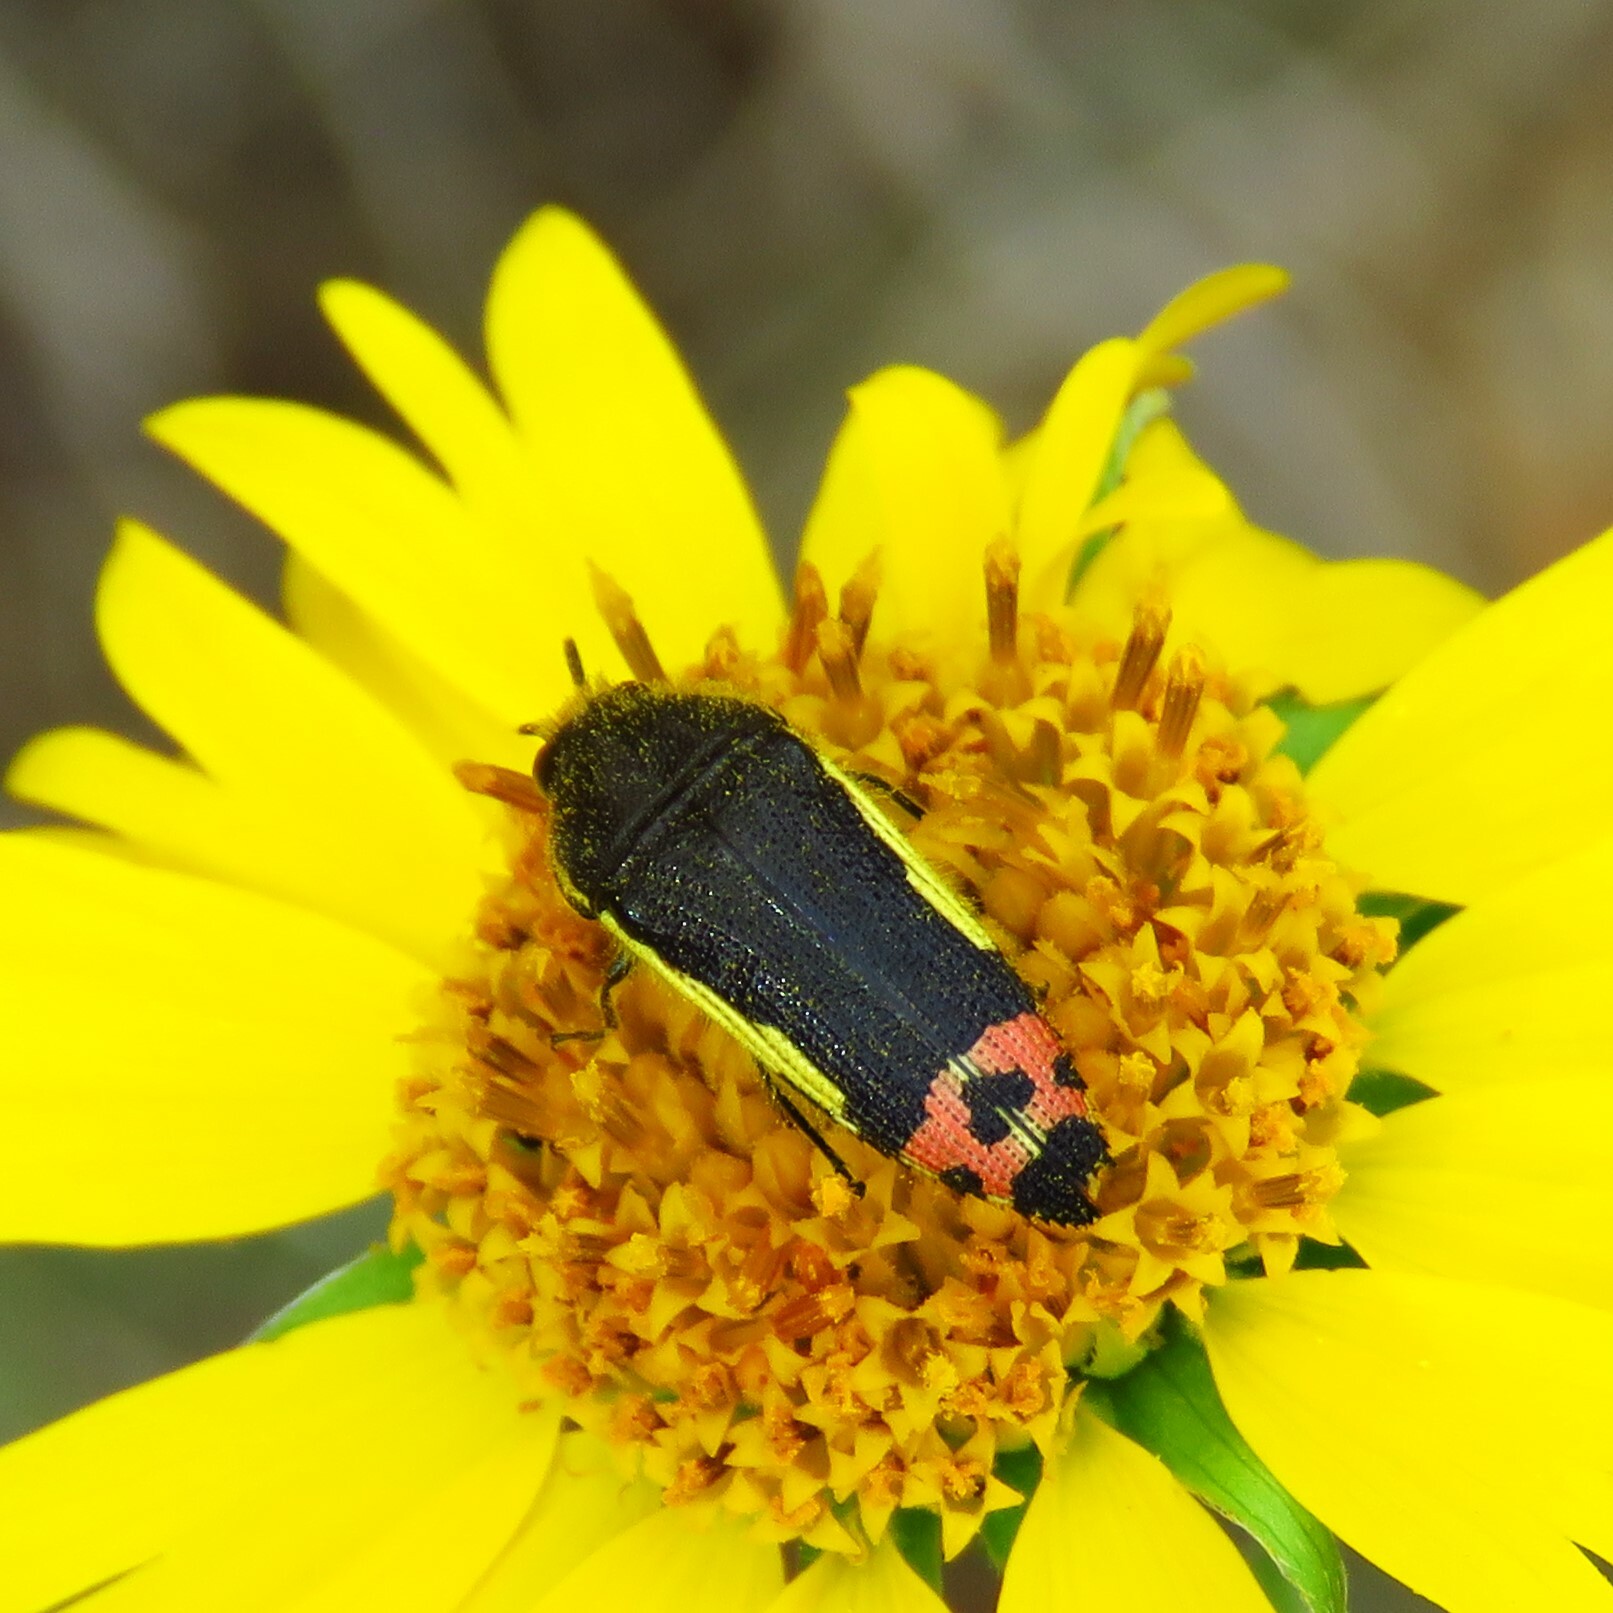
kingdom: Animalia
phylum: Arthropoda
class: Insecta
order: Coleoptera
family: Buprestidae
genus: Acmaeodera
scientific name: Acmaeodera flavomarginata
